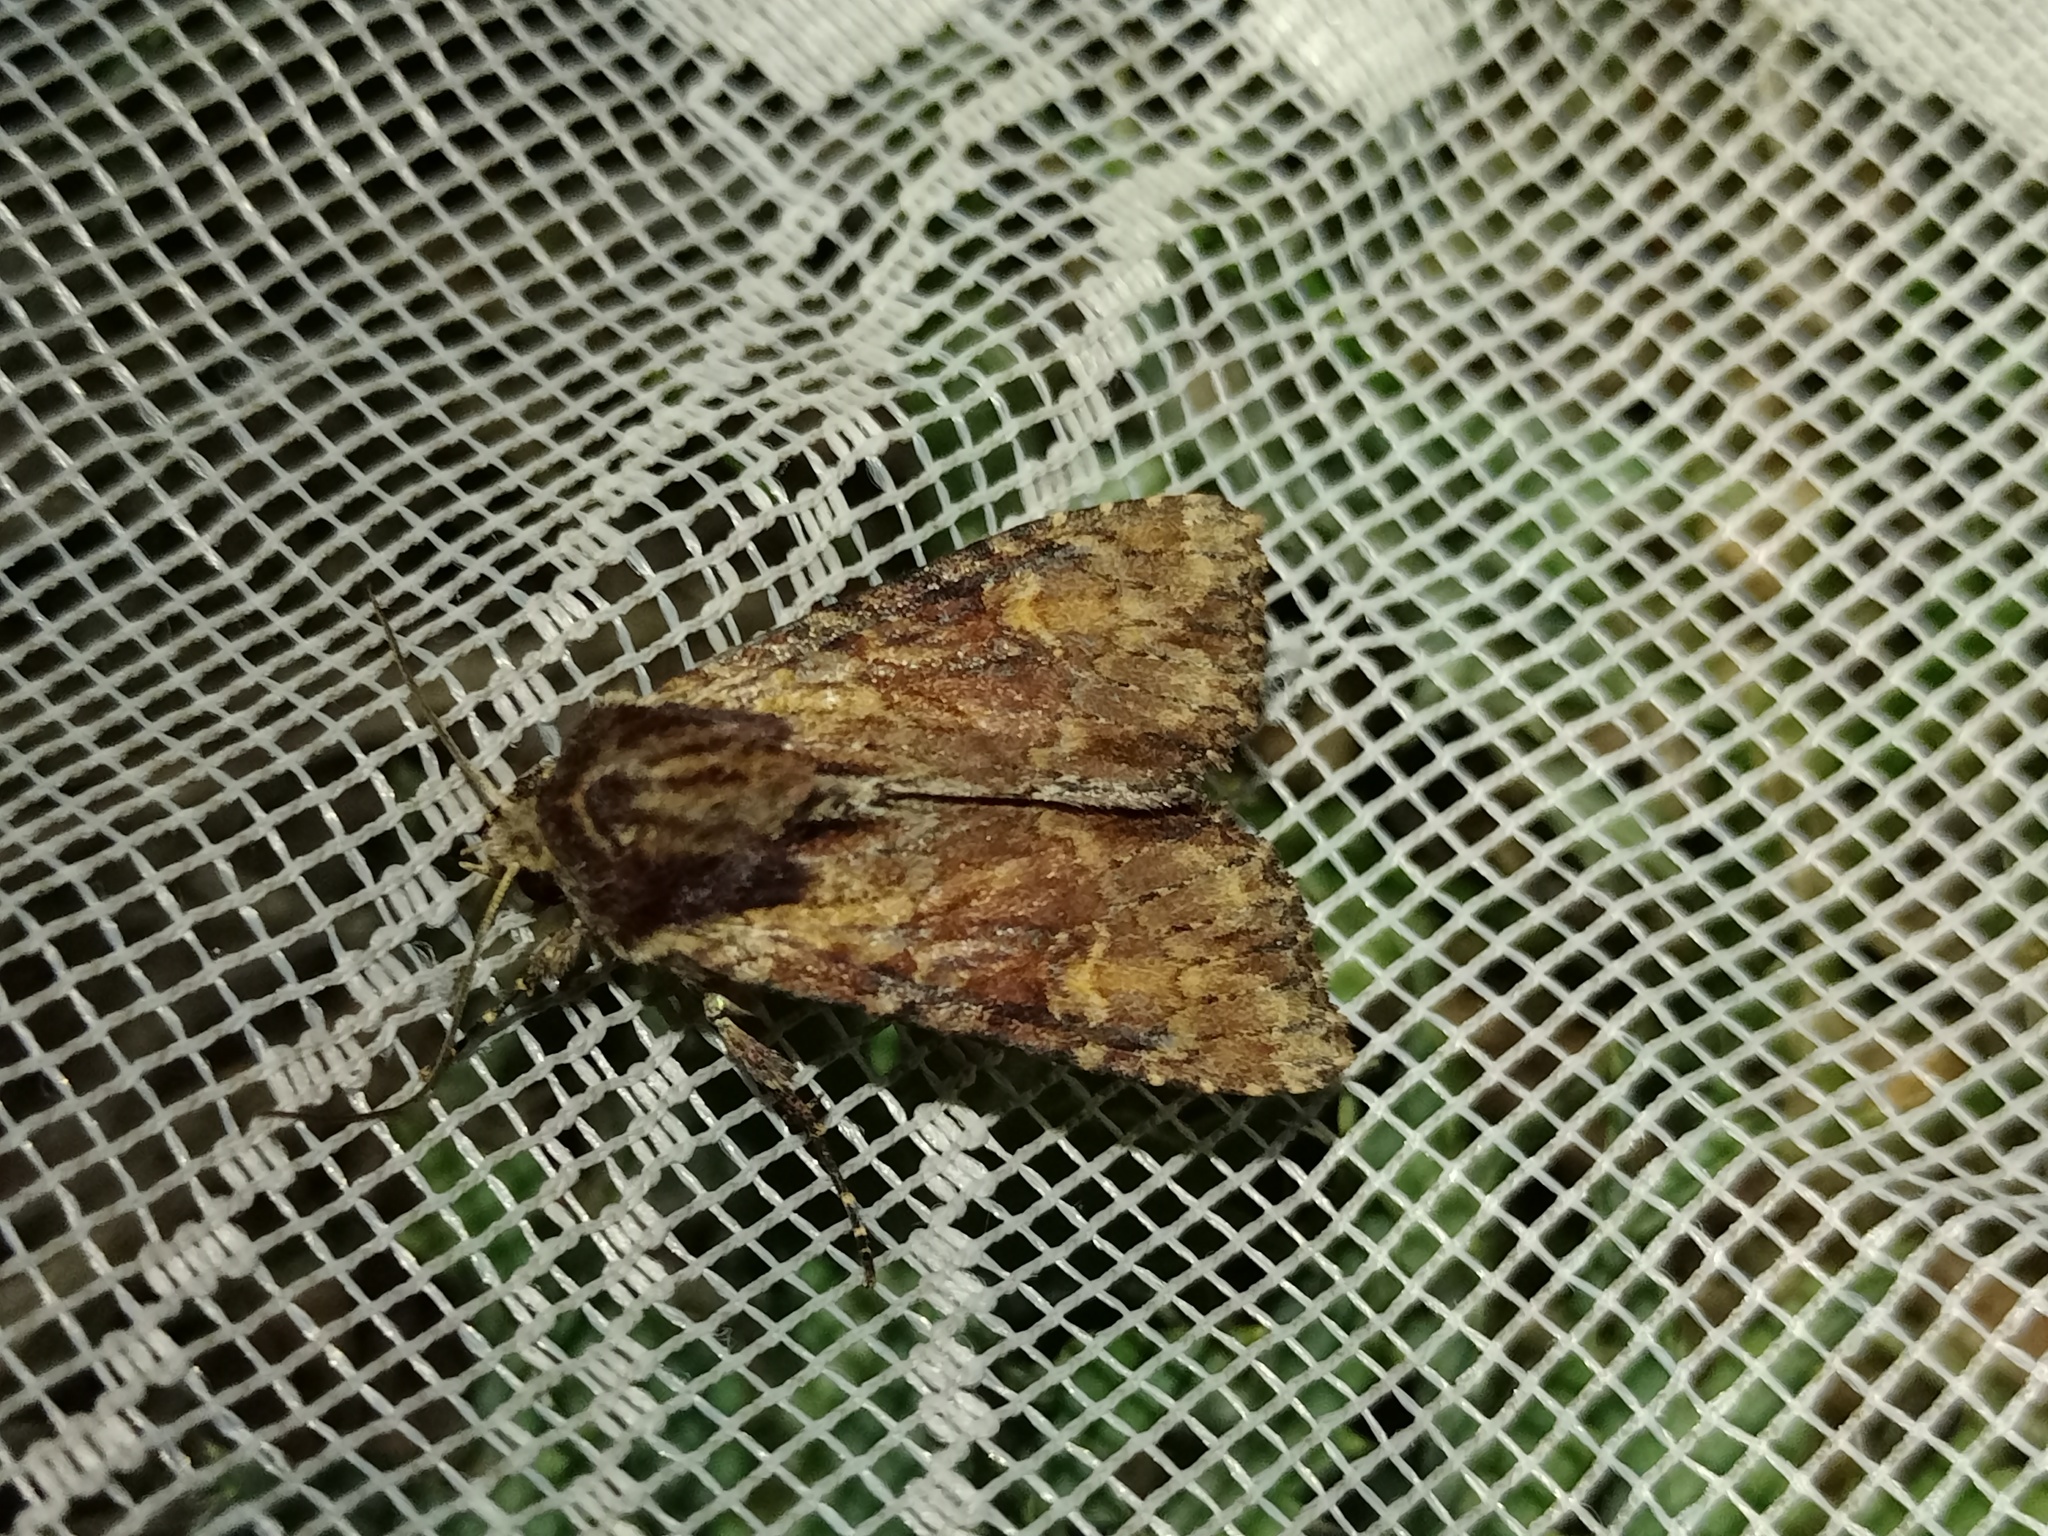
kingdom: Animalia
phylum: Arthropoda
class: Insecta
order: Lepidoptera
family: Noctuidae
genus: Apamea
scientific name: Apamea crenata
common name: Clouded-bordered brindle
